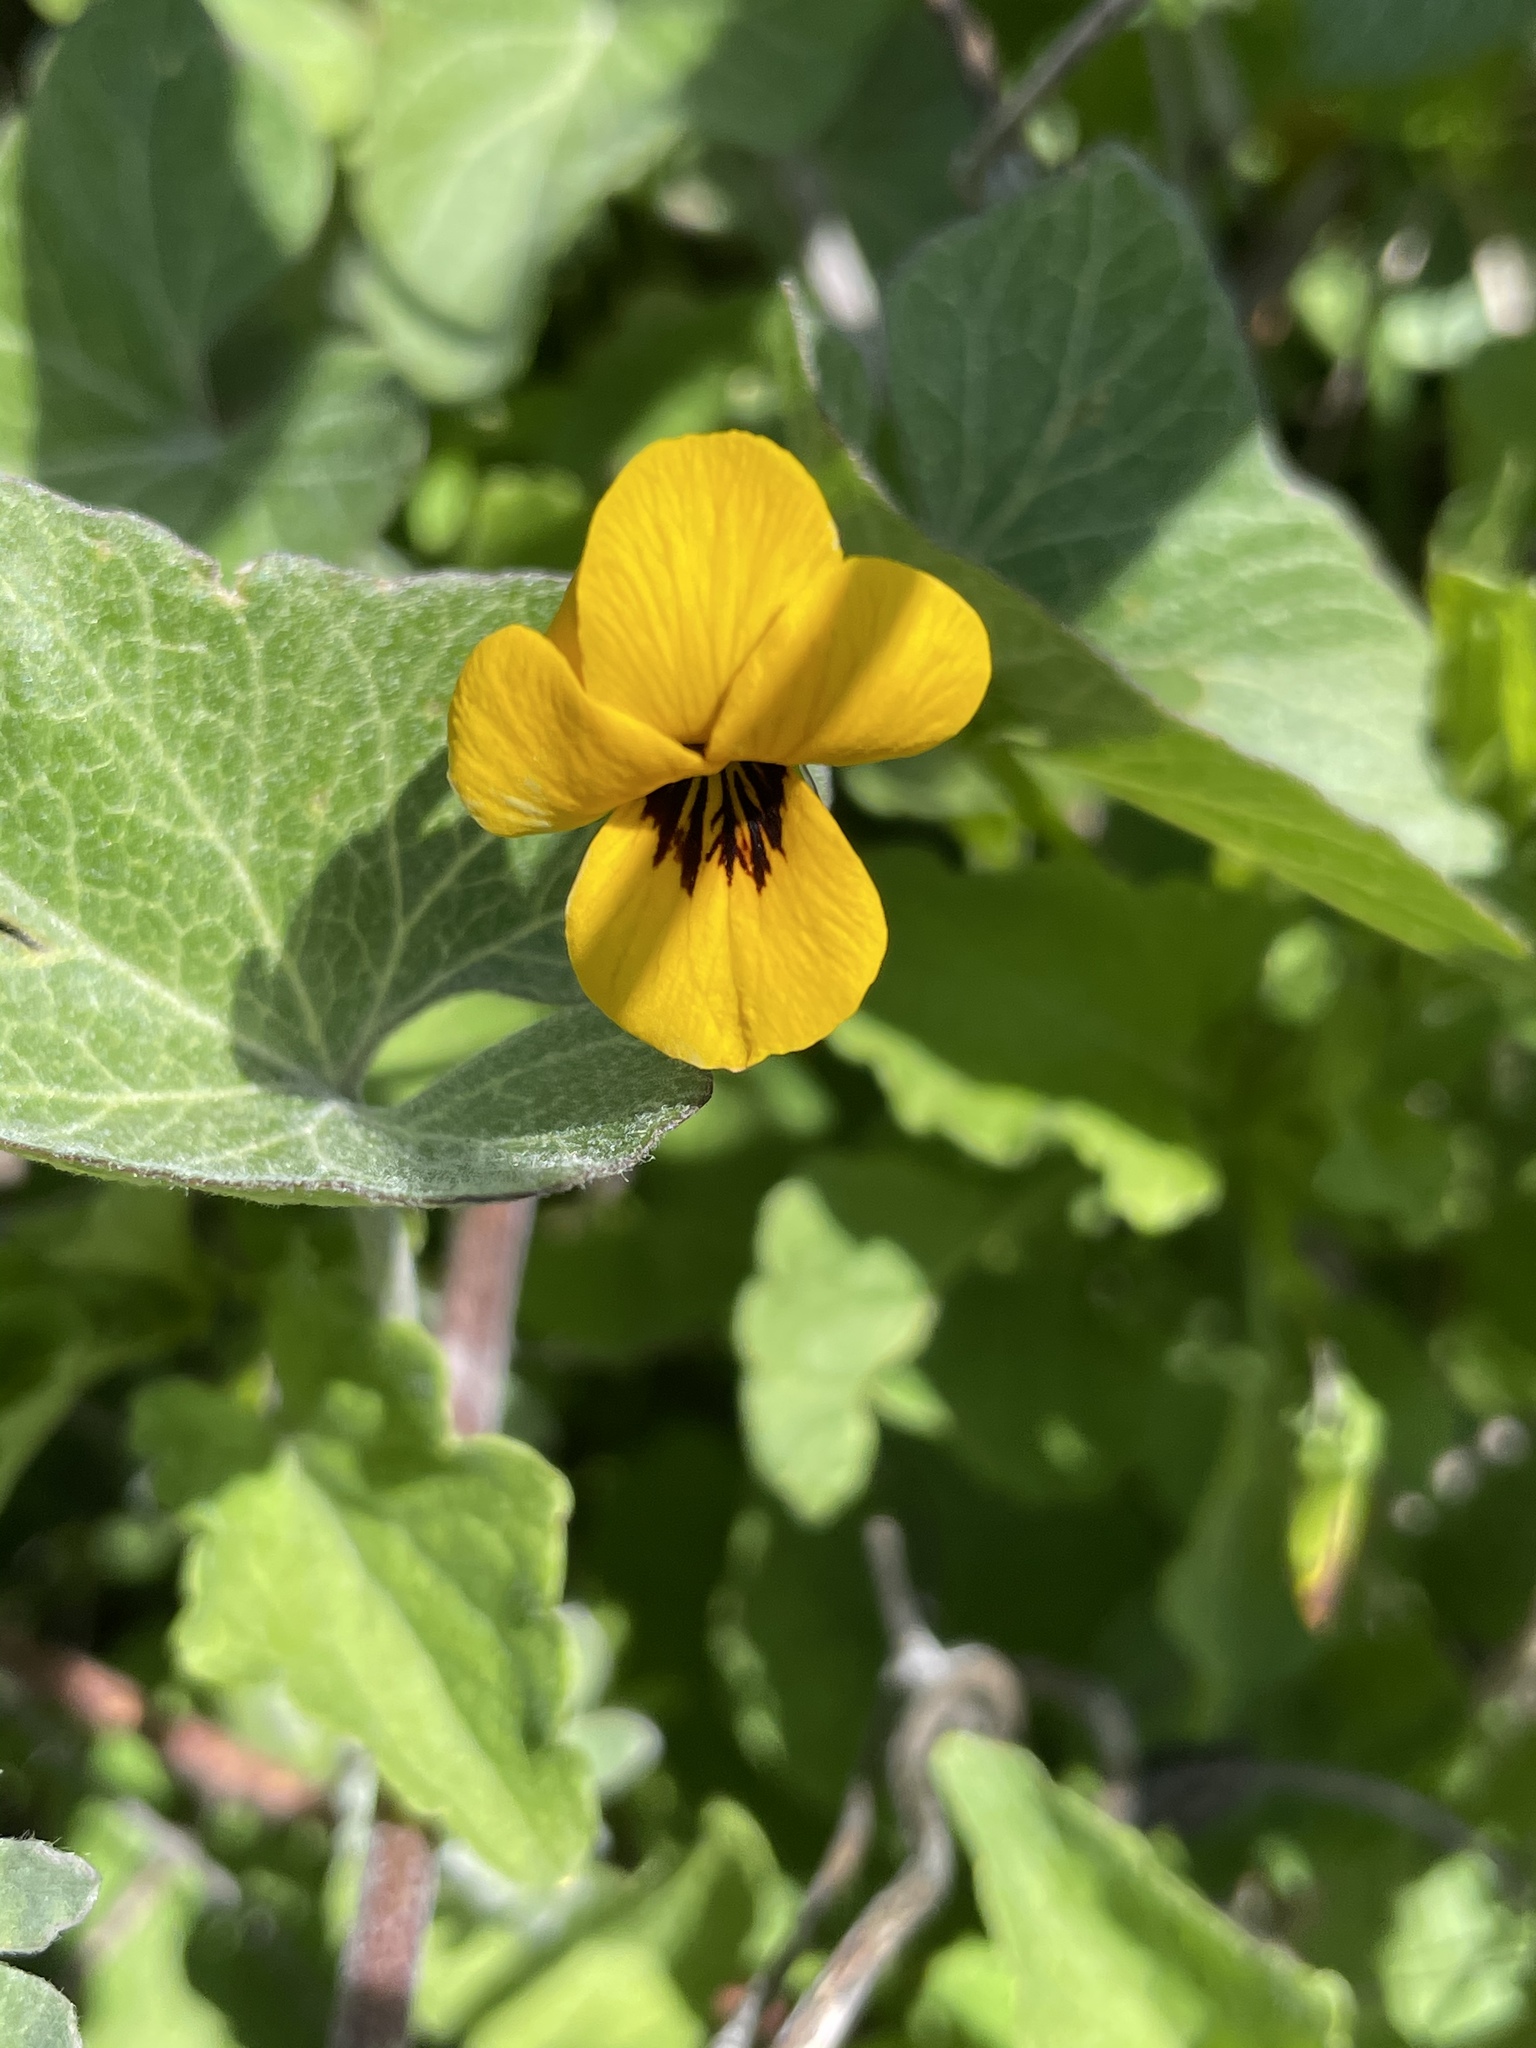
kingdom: Plantae
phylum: Tracheophyta
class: Magnoliopsida
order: Malpighiales
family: Violaceae
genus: Viola
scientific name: Viola pedunculata
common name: California golden violet
